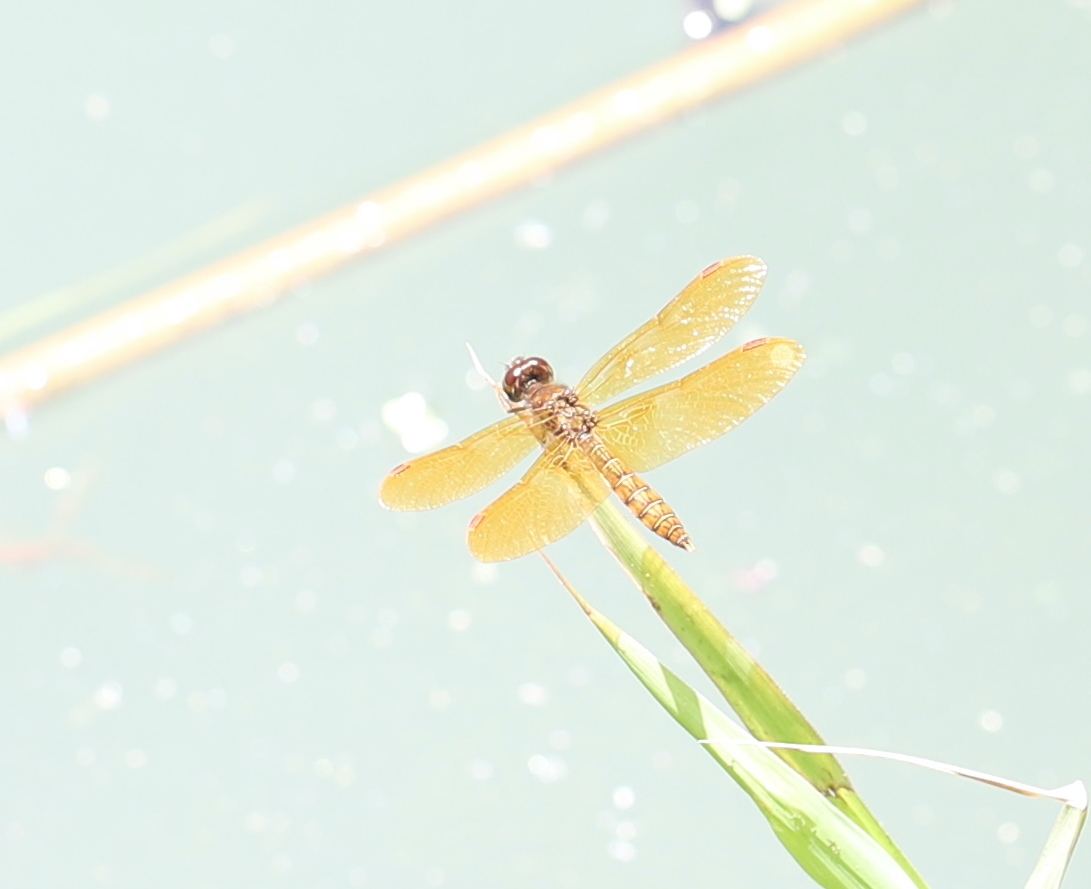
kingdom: Animalia
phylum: Arthropoda
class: Insecta
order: Odonata
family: Libellulidae
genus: Perithemis
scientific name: Perithemis tenera
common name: Eastern amberwing
